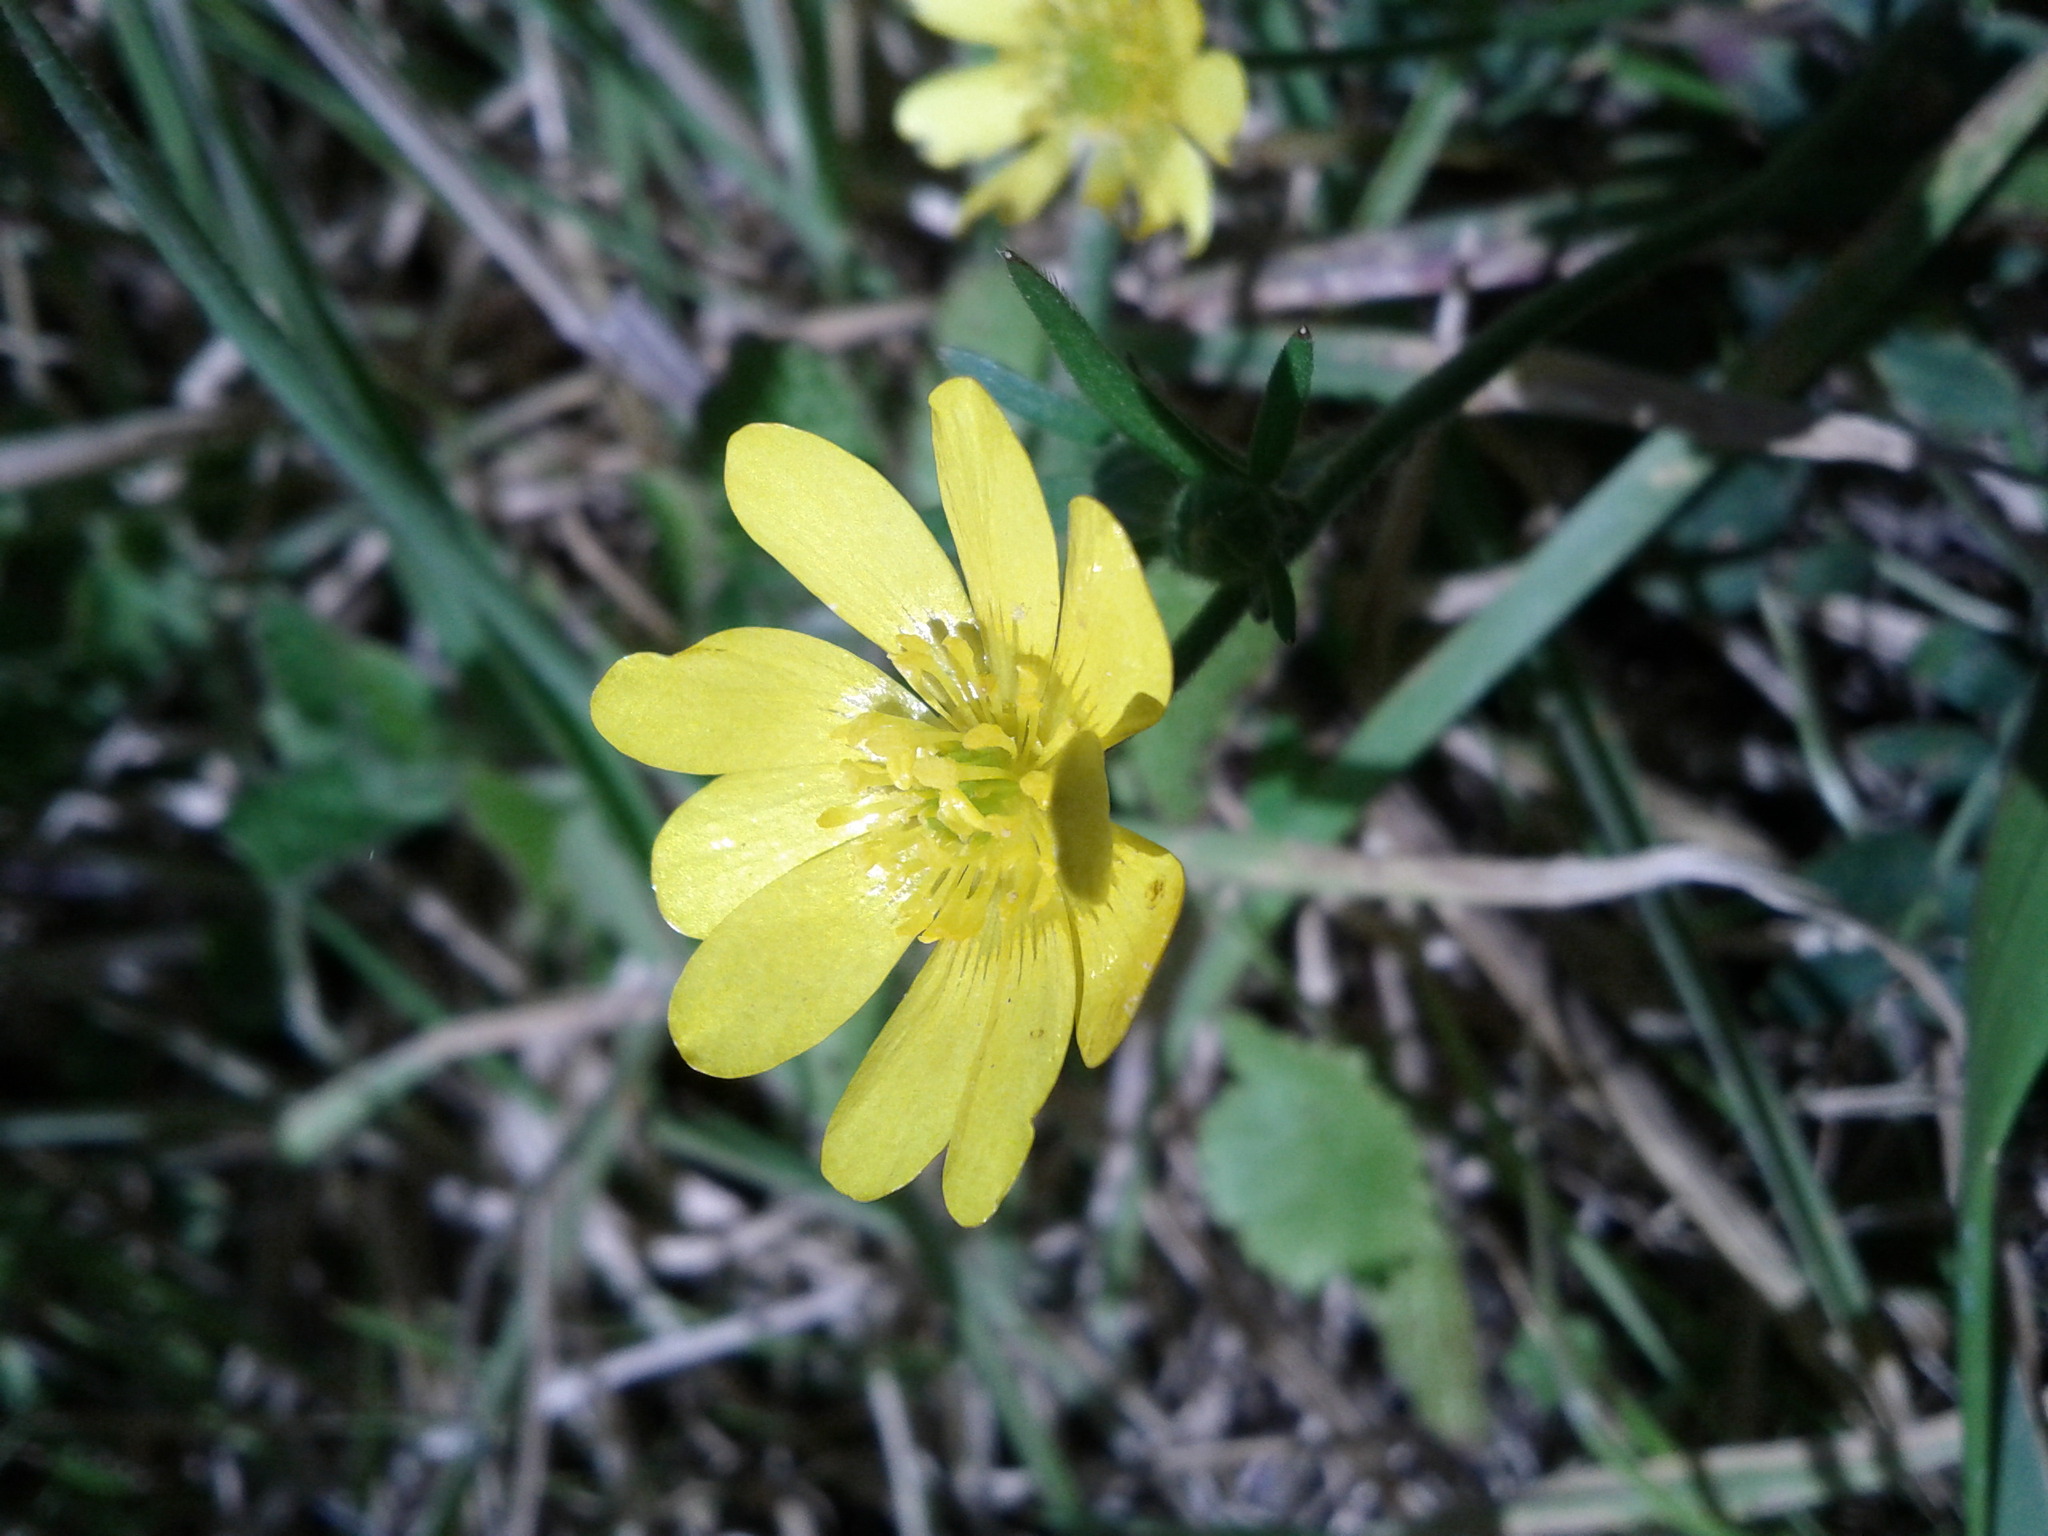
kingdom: Plantae
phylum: Tracheophyta
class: Magnoliopsida
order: Ranunculales
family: Ranunculaceae
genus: Ranunculus
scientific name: Ranunculus californicus
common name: California buttercup
